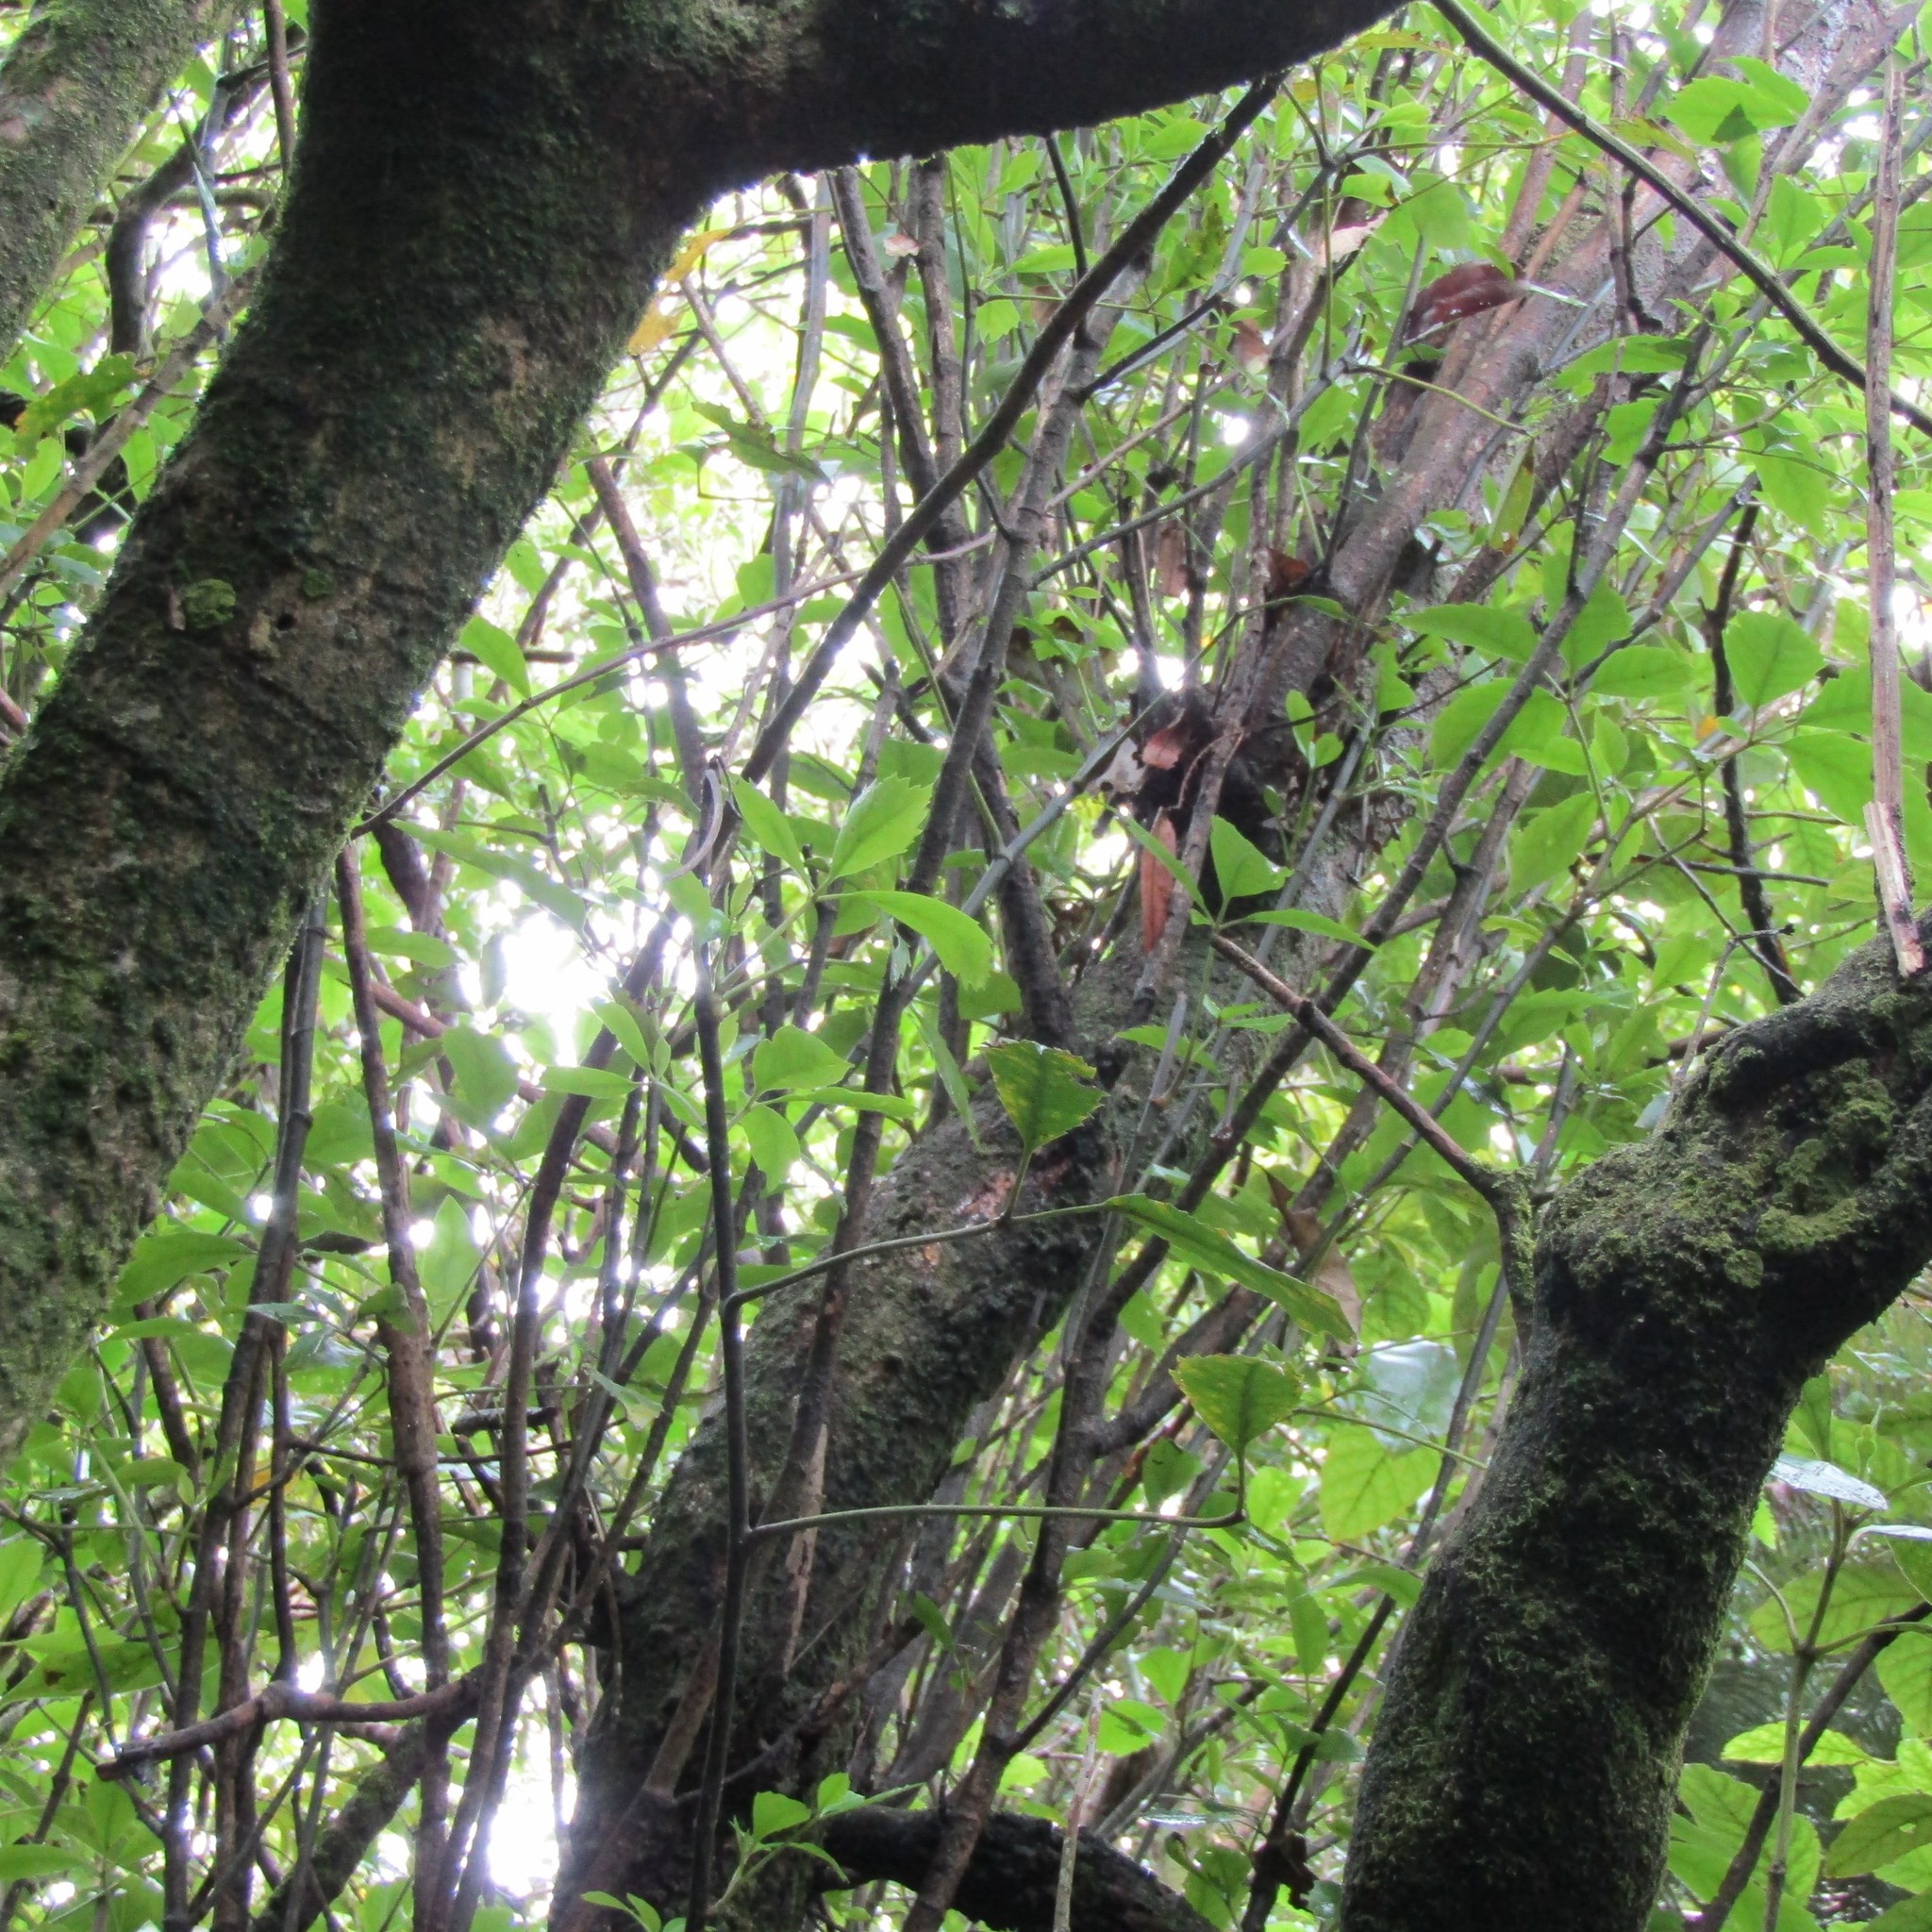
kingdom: Plantae
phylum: Tracheophyta
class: Magnoliopsida
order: Apiales
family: Araliaceae
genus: Neopanax
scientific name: Neopanax arboreus
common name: Five-fingers
